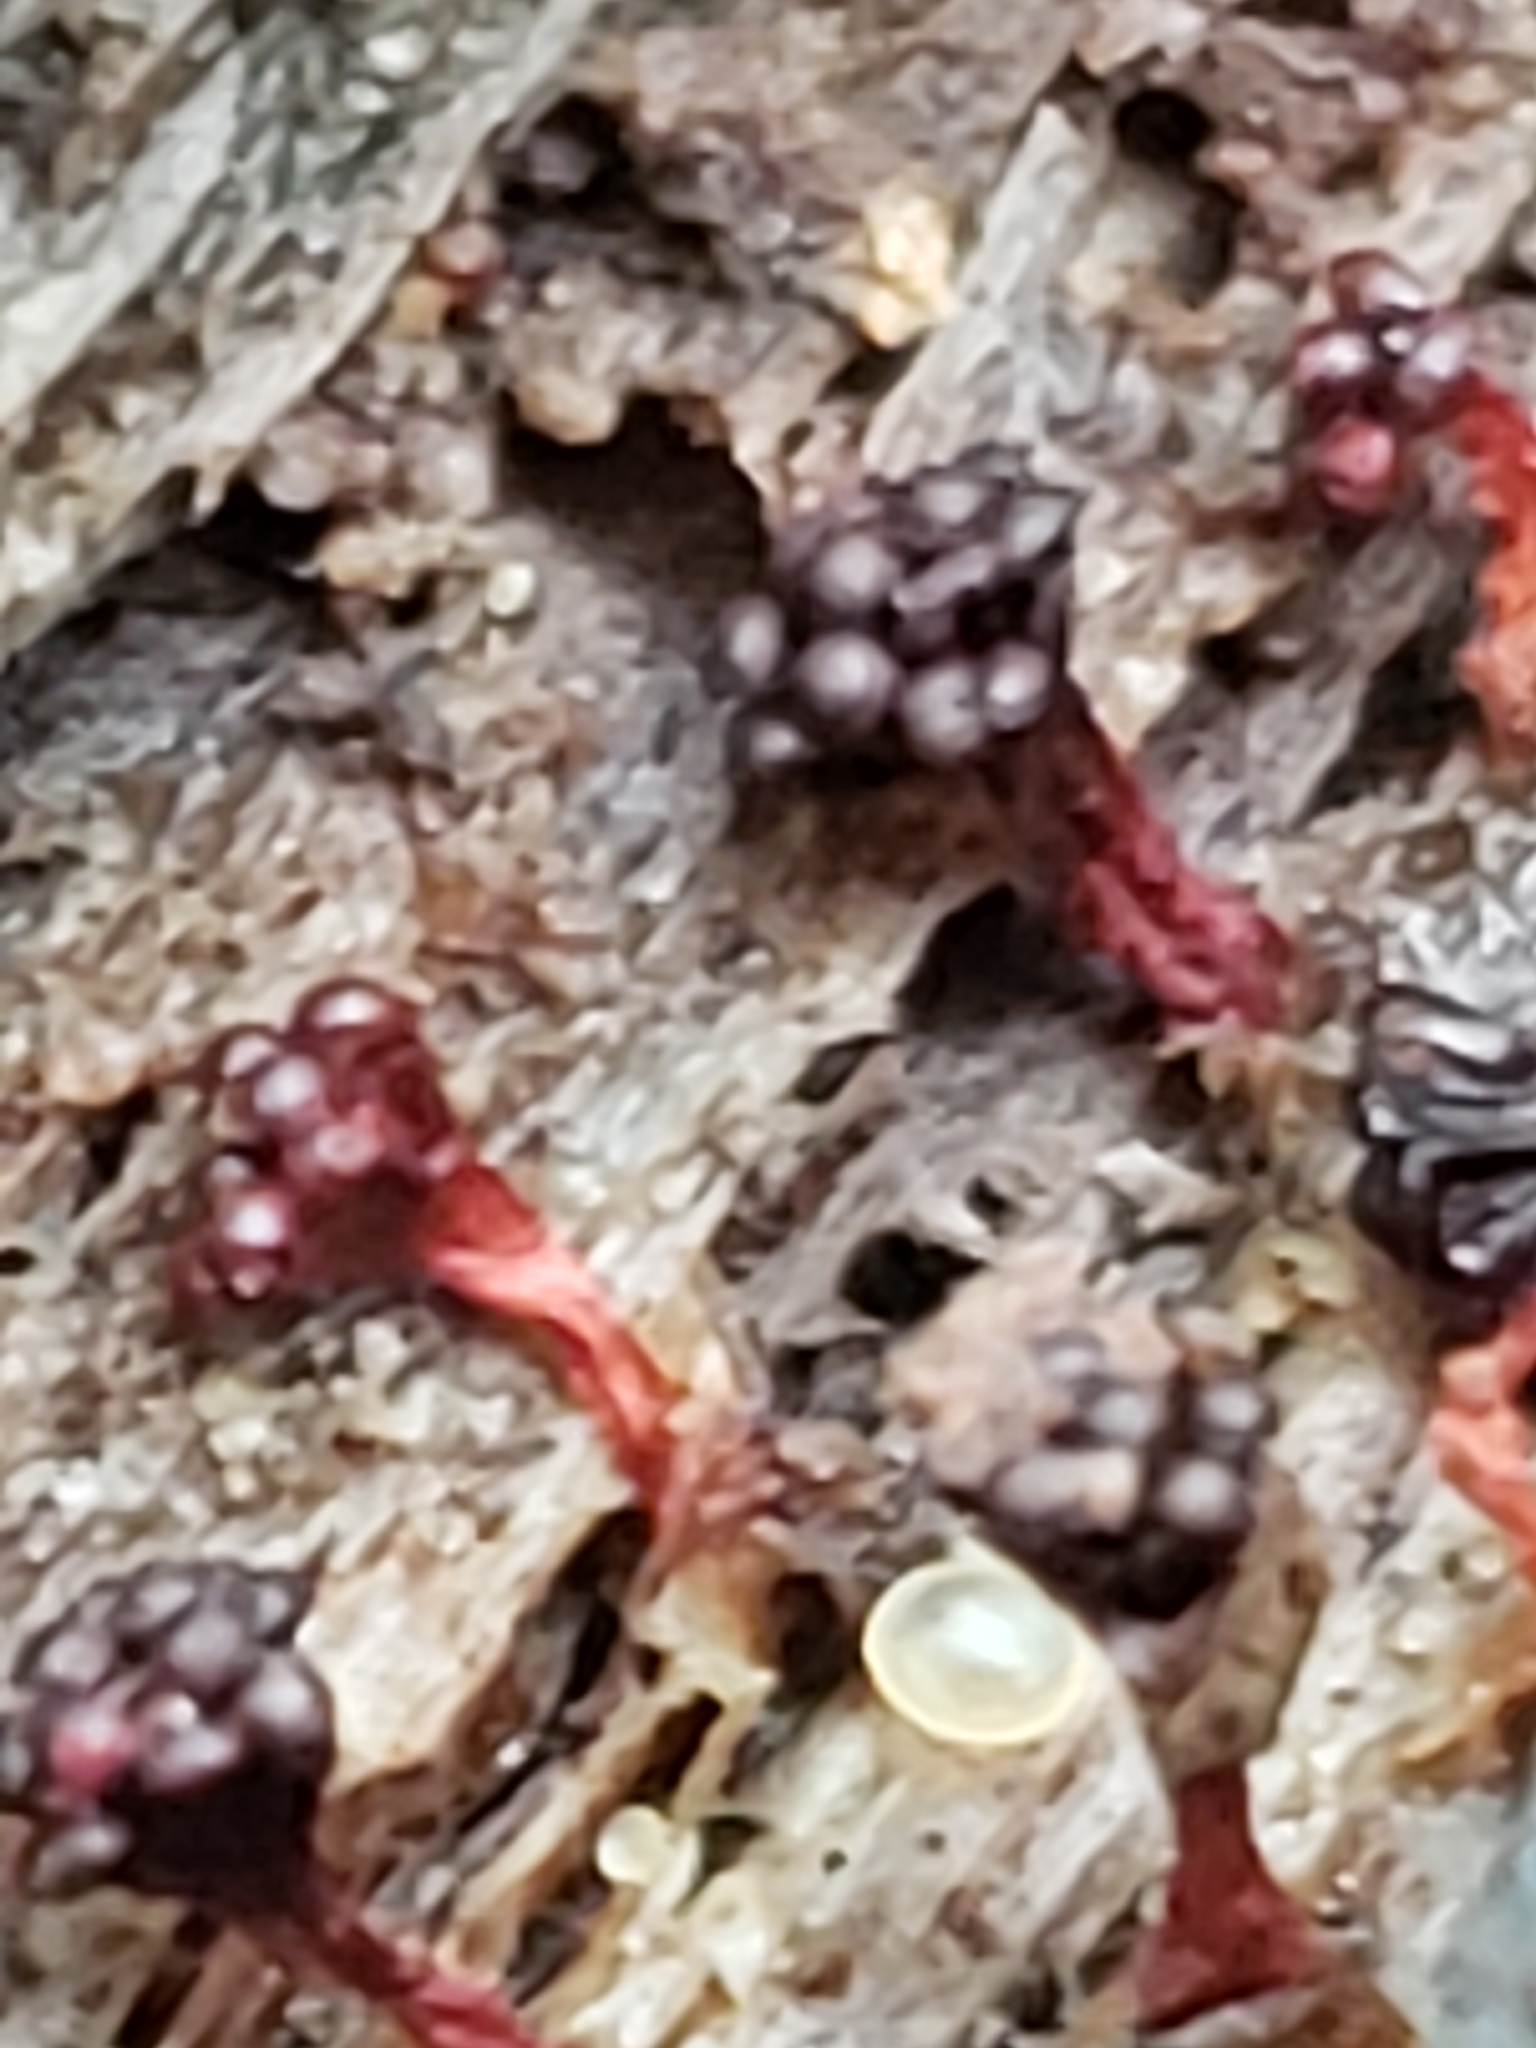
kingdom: Protozoa
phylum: Mycetozoa
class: Myxomycetes
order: Trichiales
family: Trichiaceae
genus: Metatrichia
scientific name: Metatrichia vesparia
